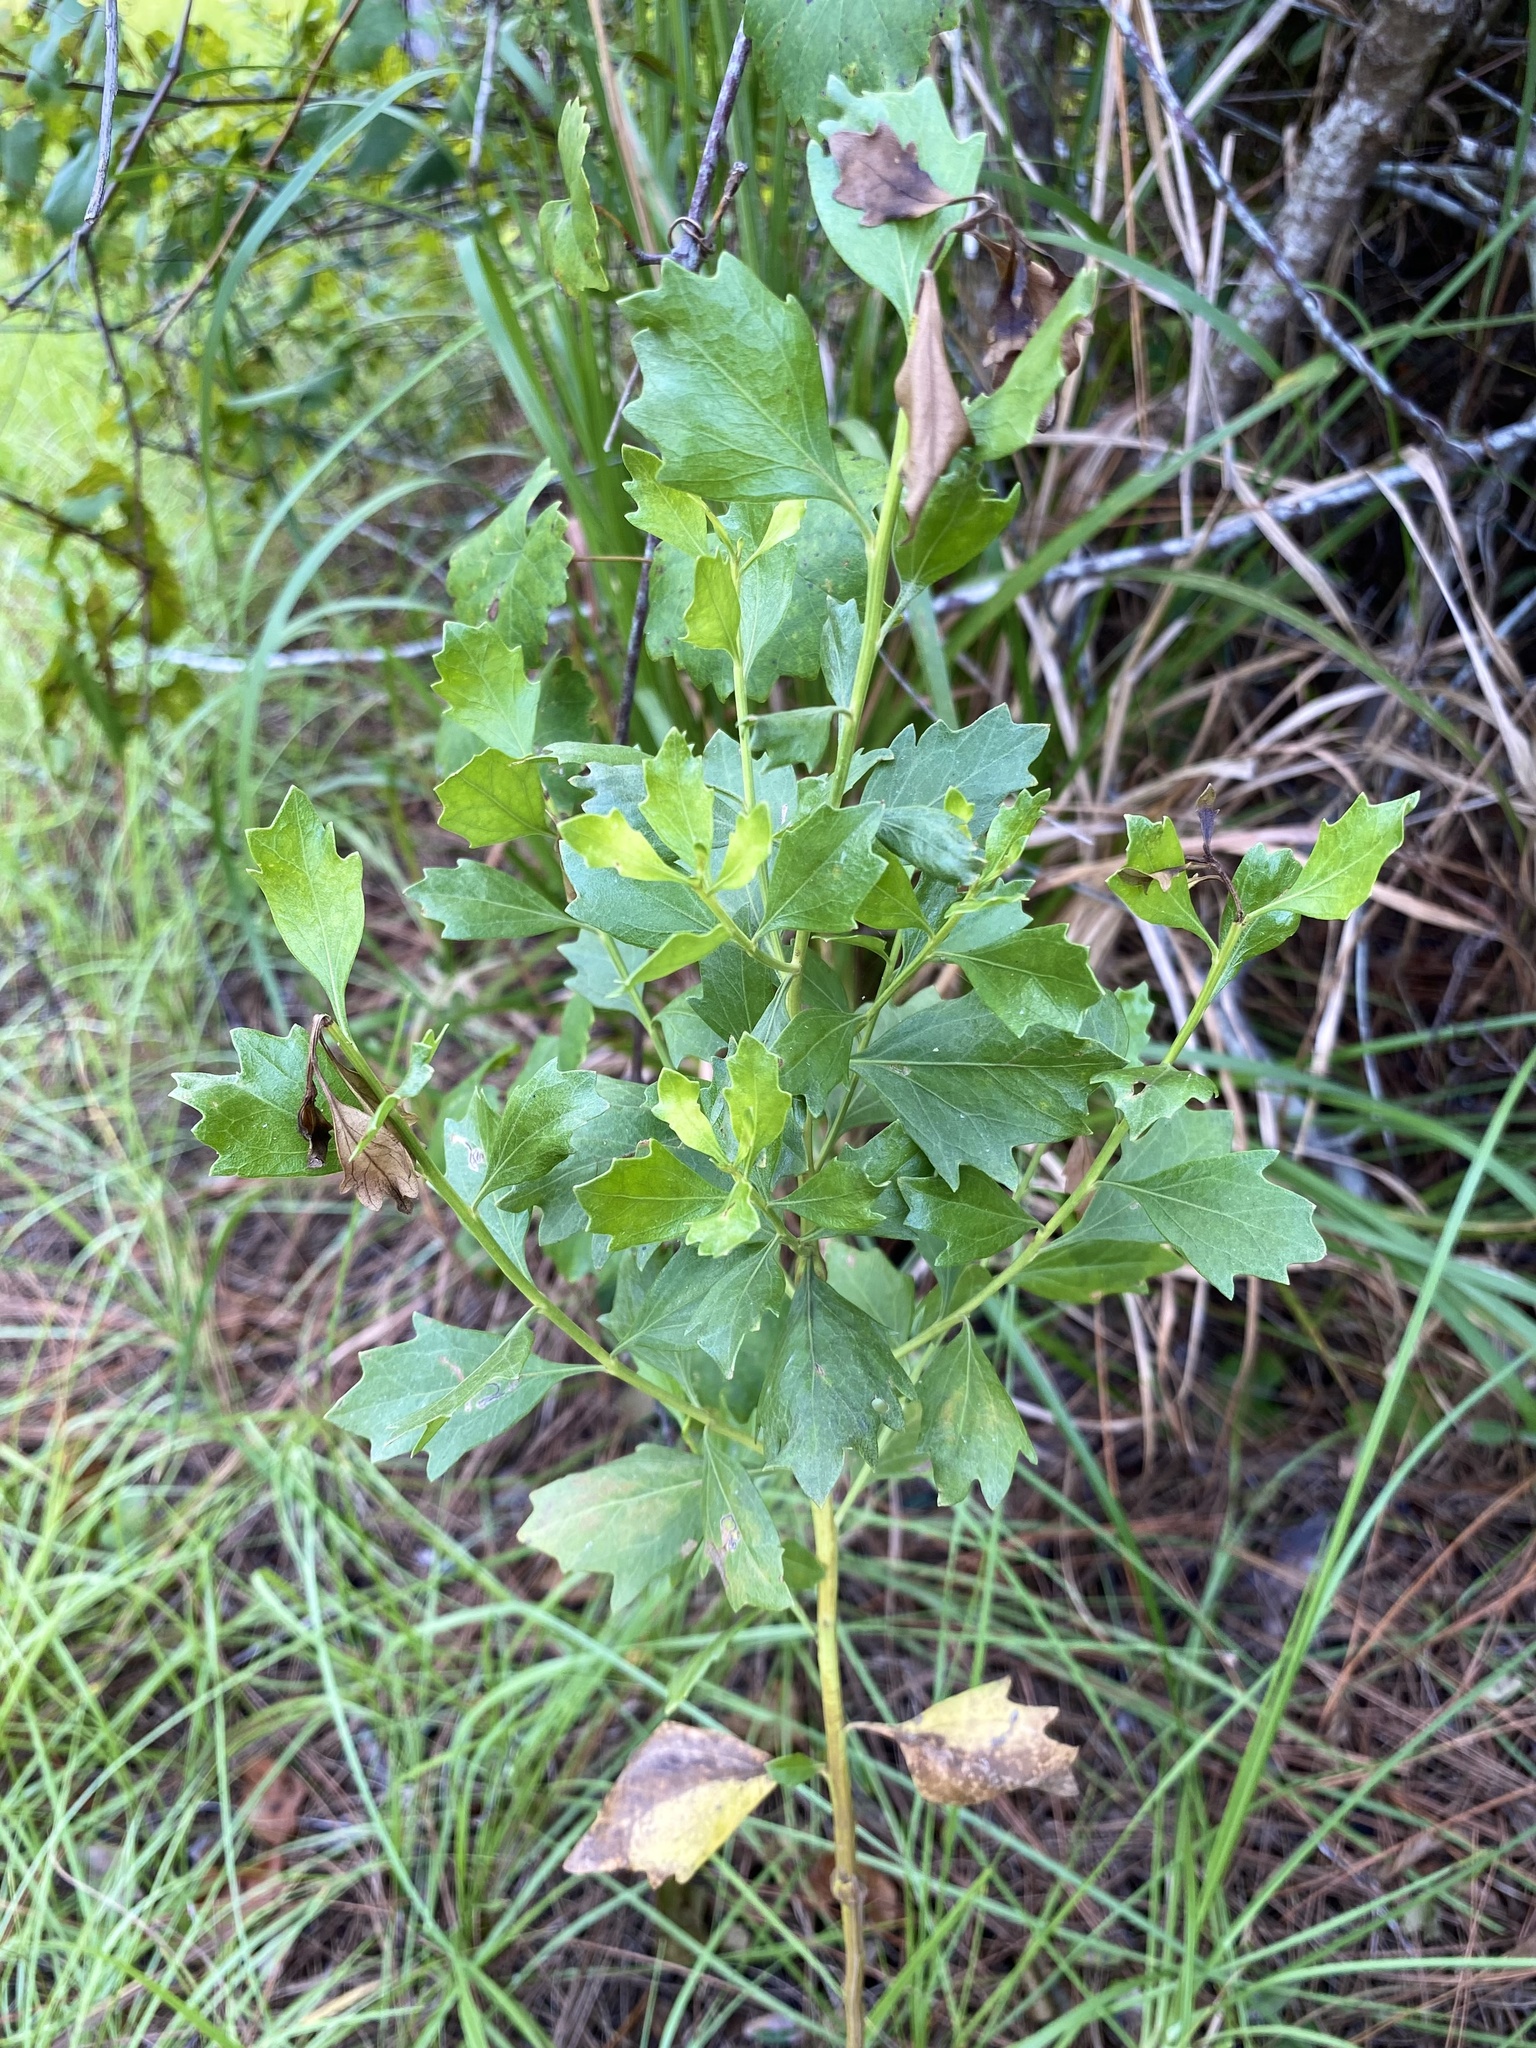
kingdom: Plantae
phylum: Tracheophyta
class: Magnoliopsida
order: Asterales
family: Asteraceae
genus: Baccharis
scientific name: Baccharis halimifolia
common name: Eastern baccharis
